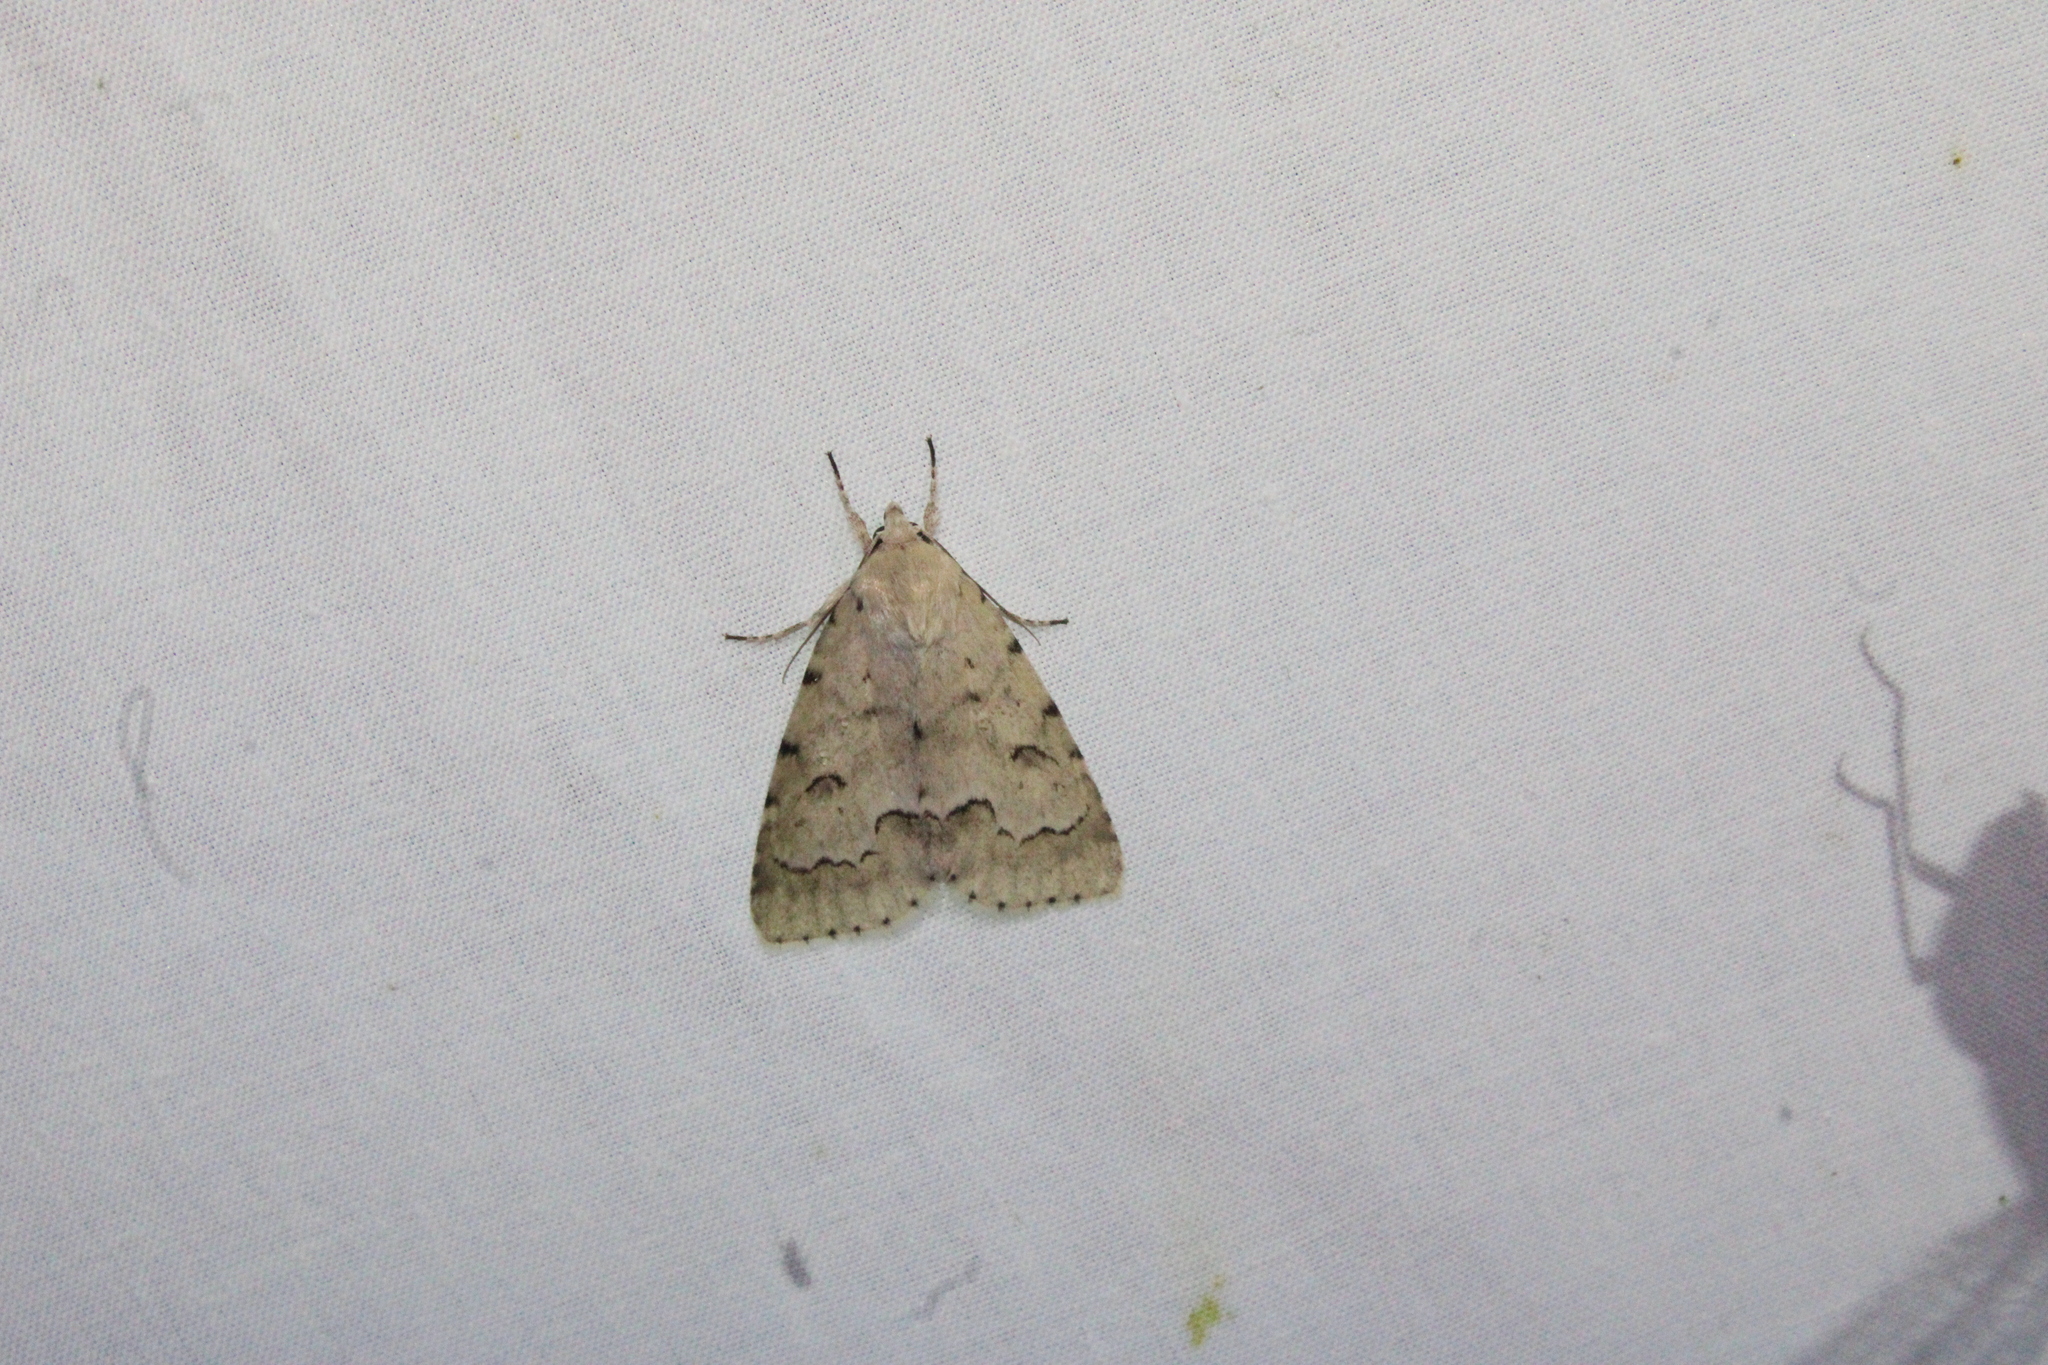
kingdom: Animalia
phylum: Arthropoda
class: Insecta
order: Lepidoptera
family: Noctuidae
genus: Acronicta
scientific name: Acronicta innotata
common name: Unmarked dagger
